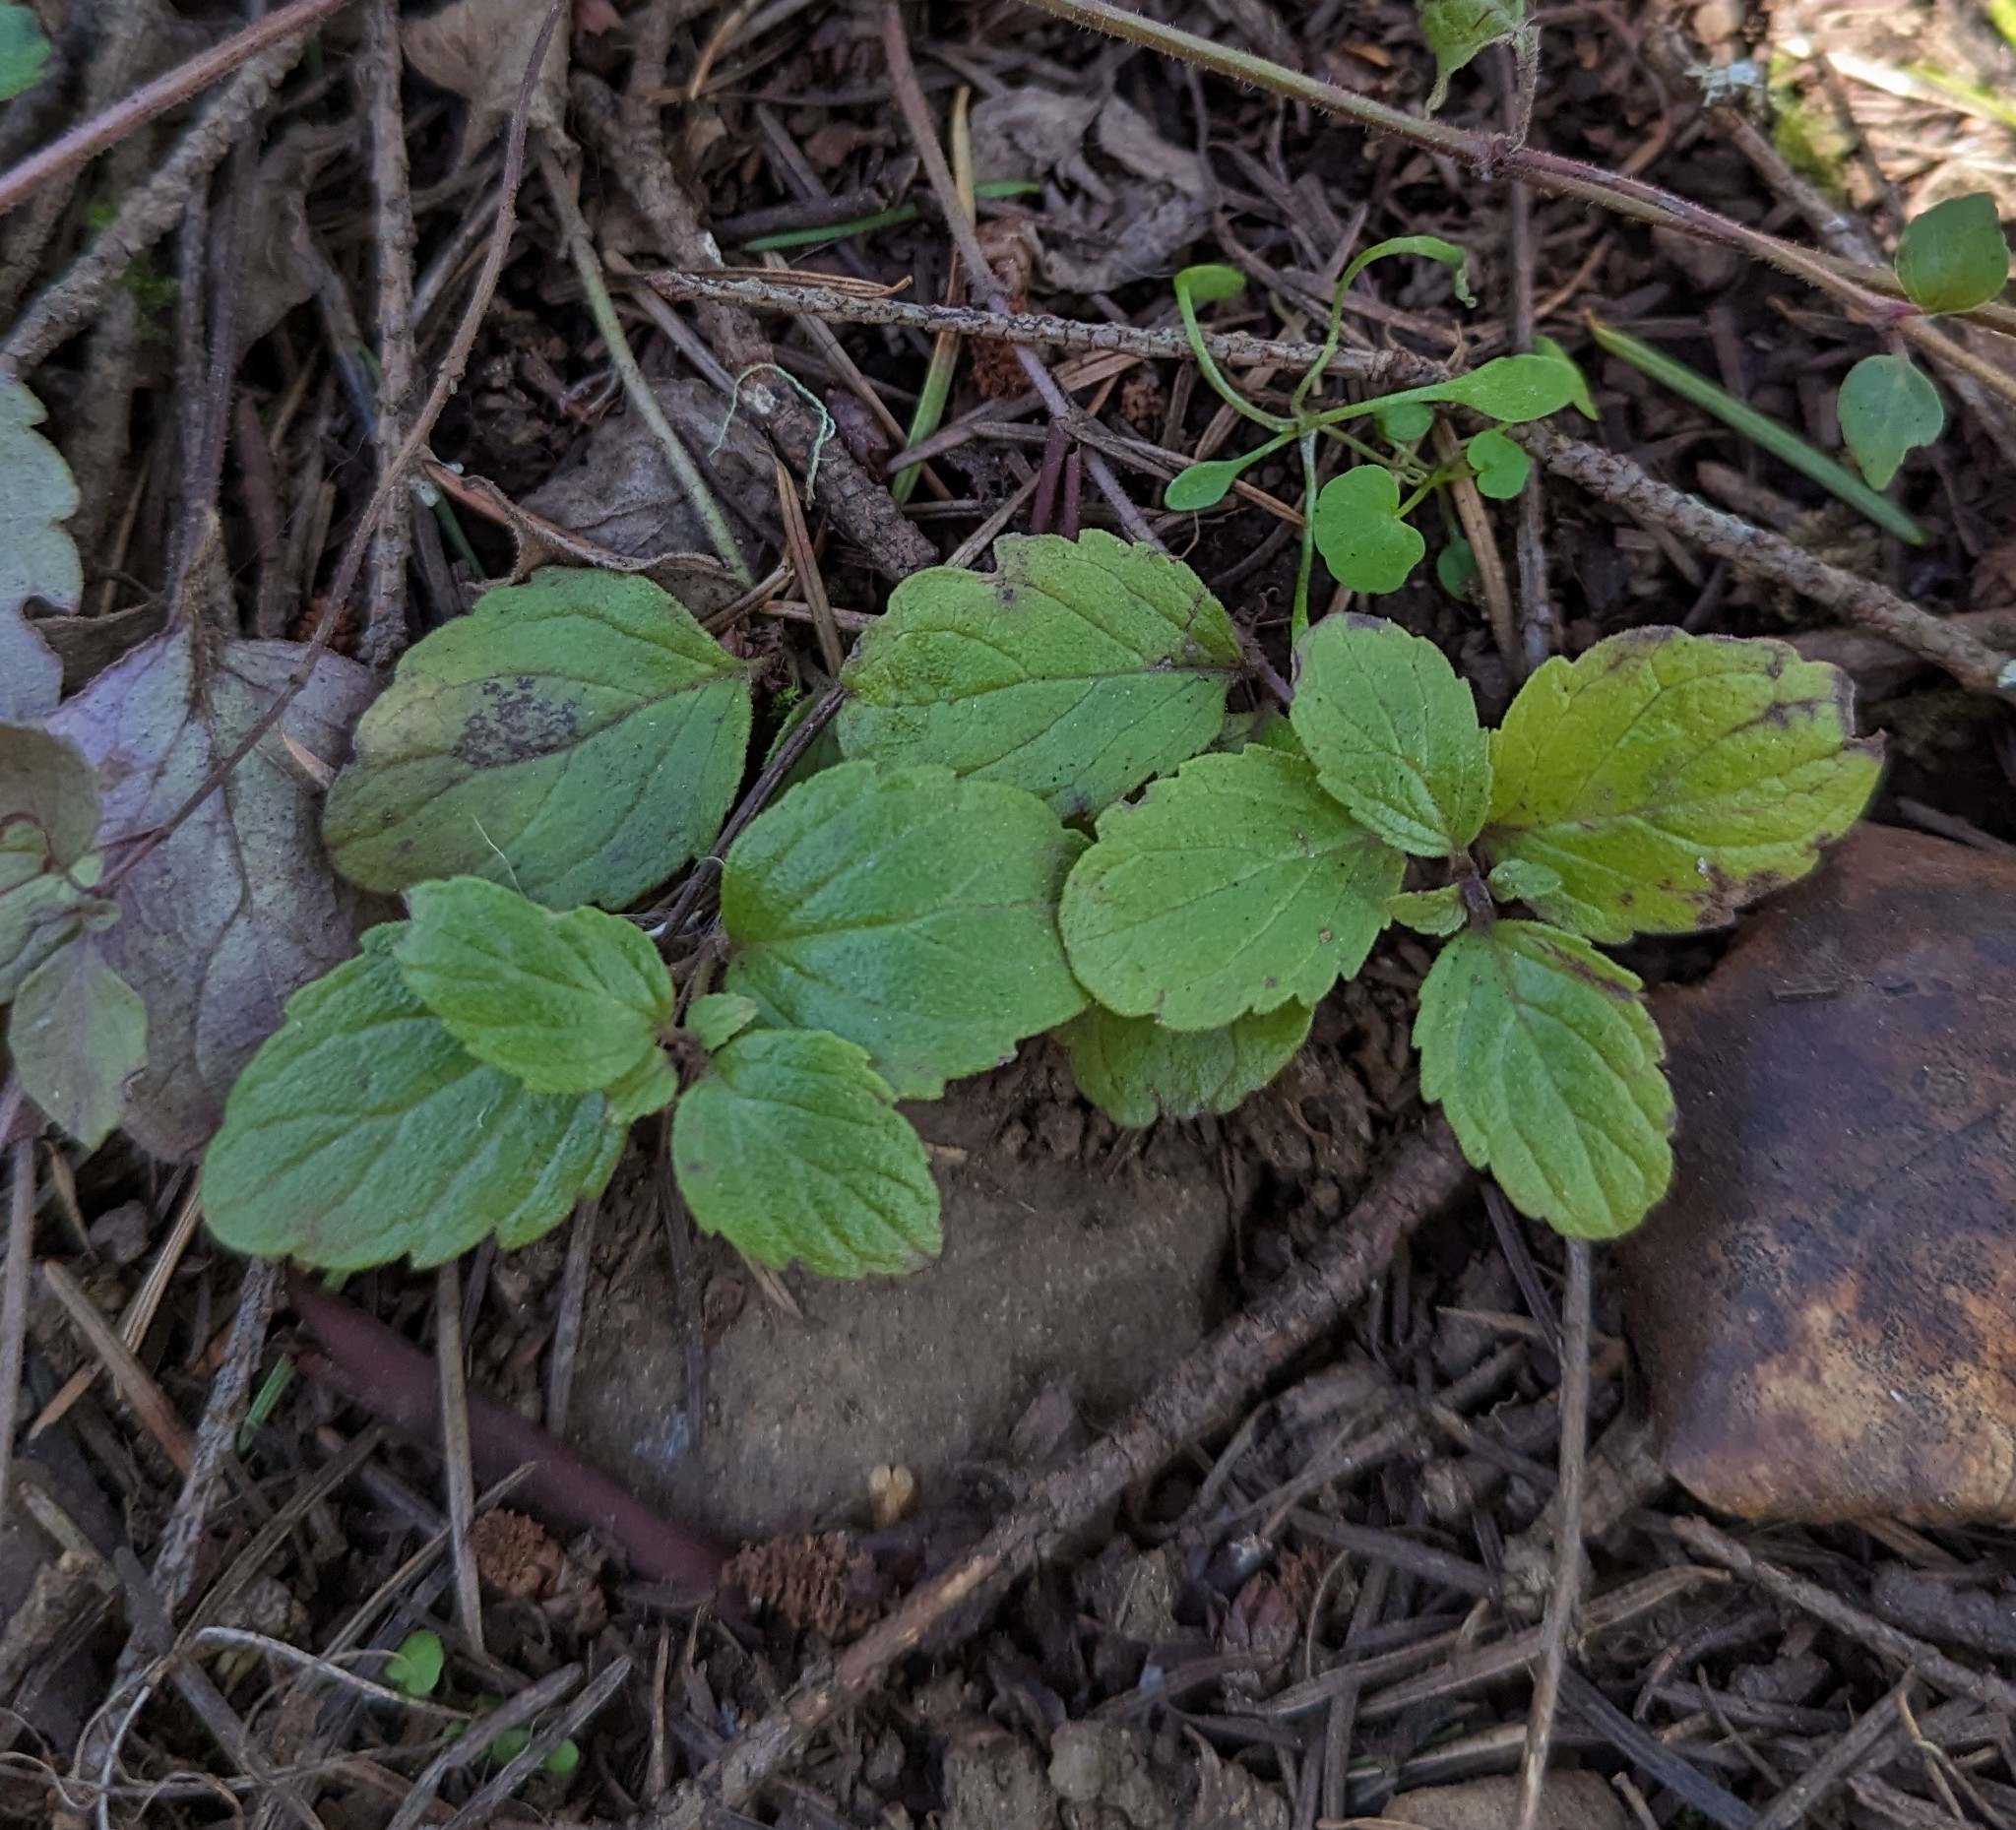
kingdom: Plantae
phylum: Tracheophyta
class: Magnoliopsida
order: Lamiales
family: Lamiaceae
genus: Micromeria
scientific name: Micromeria douglasii
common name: Yerba buena
